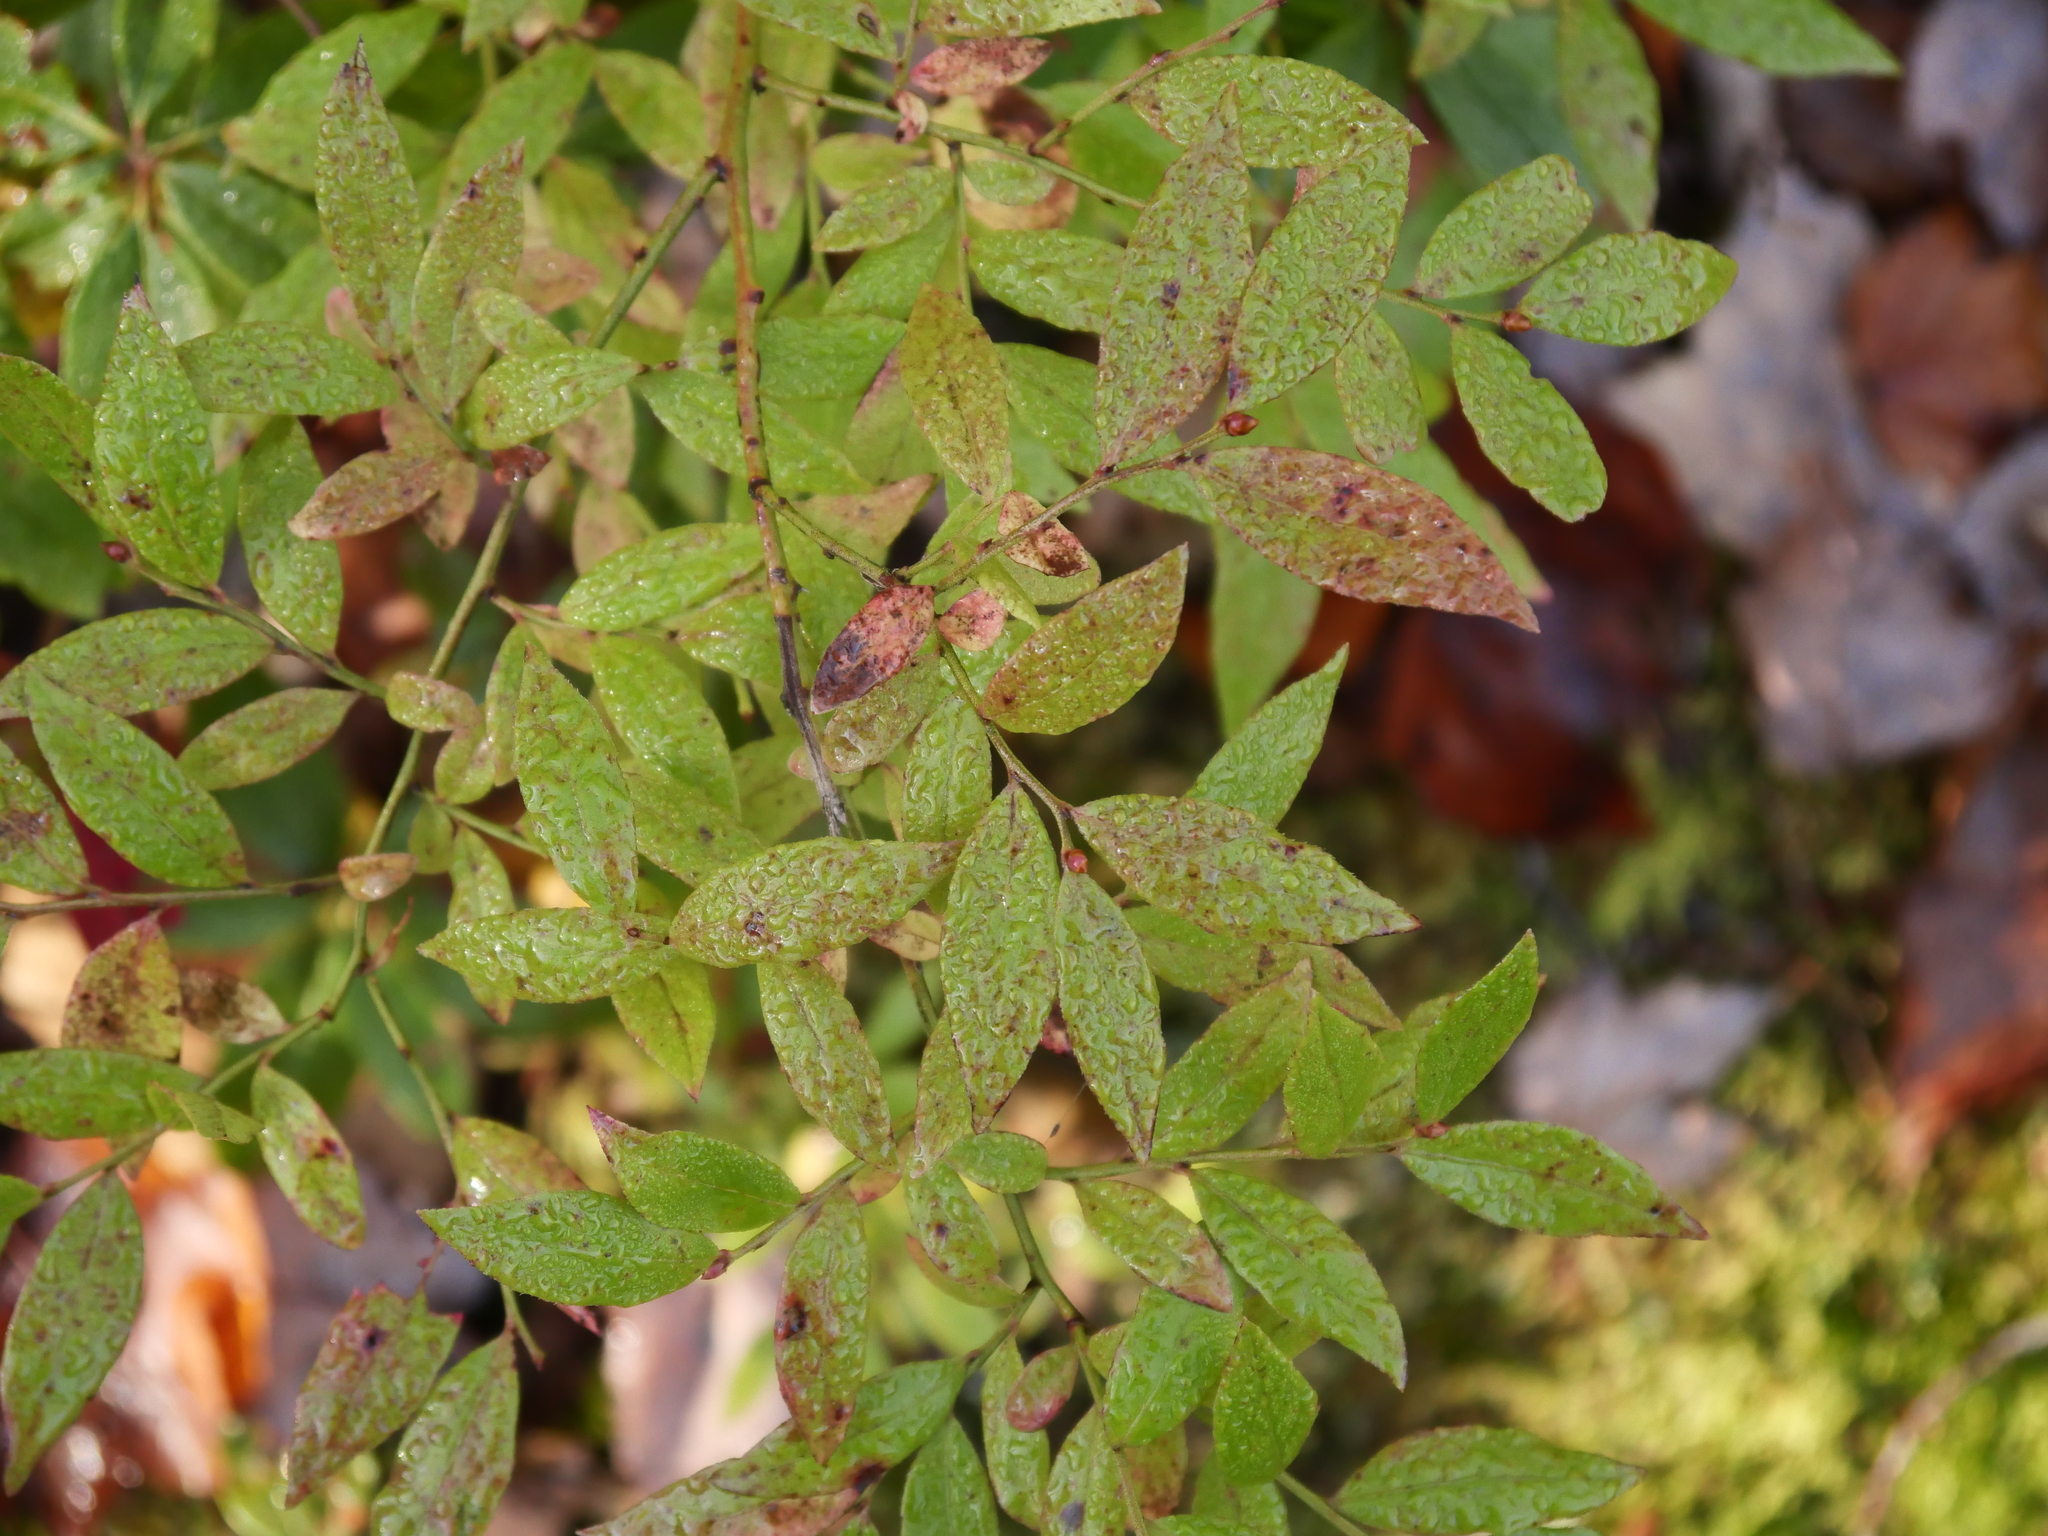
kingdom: Plantae
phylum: Tracheophyta
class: Magnoliopsida
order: Ericales
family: Ericaceae
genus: Vaccinium
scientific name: Vaccinium angustifolium
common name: Early lowbush blueberry
